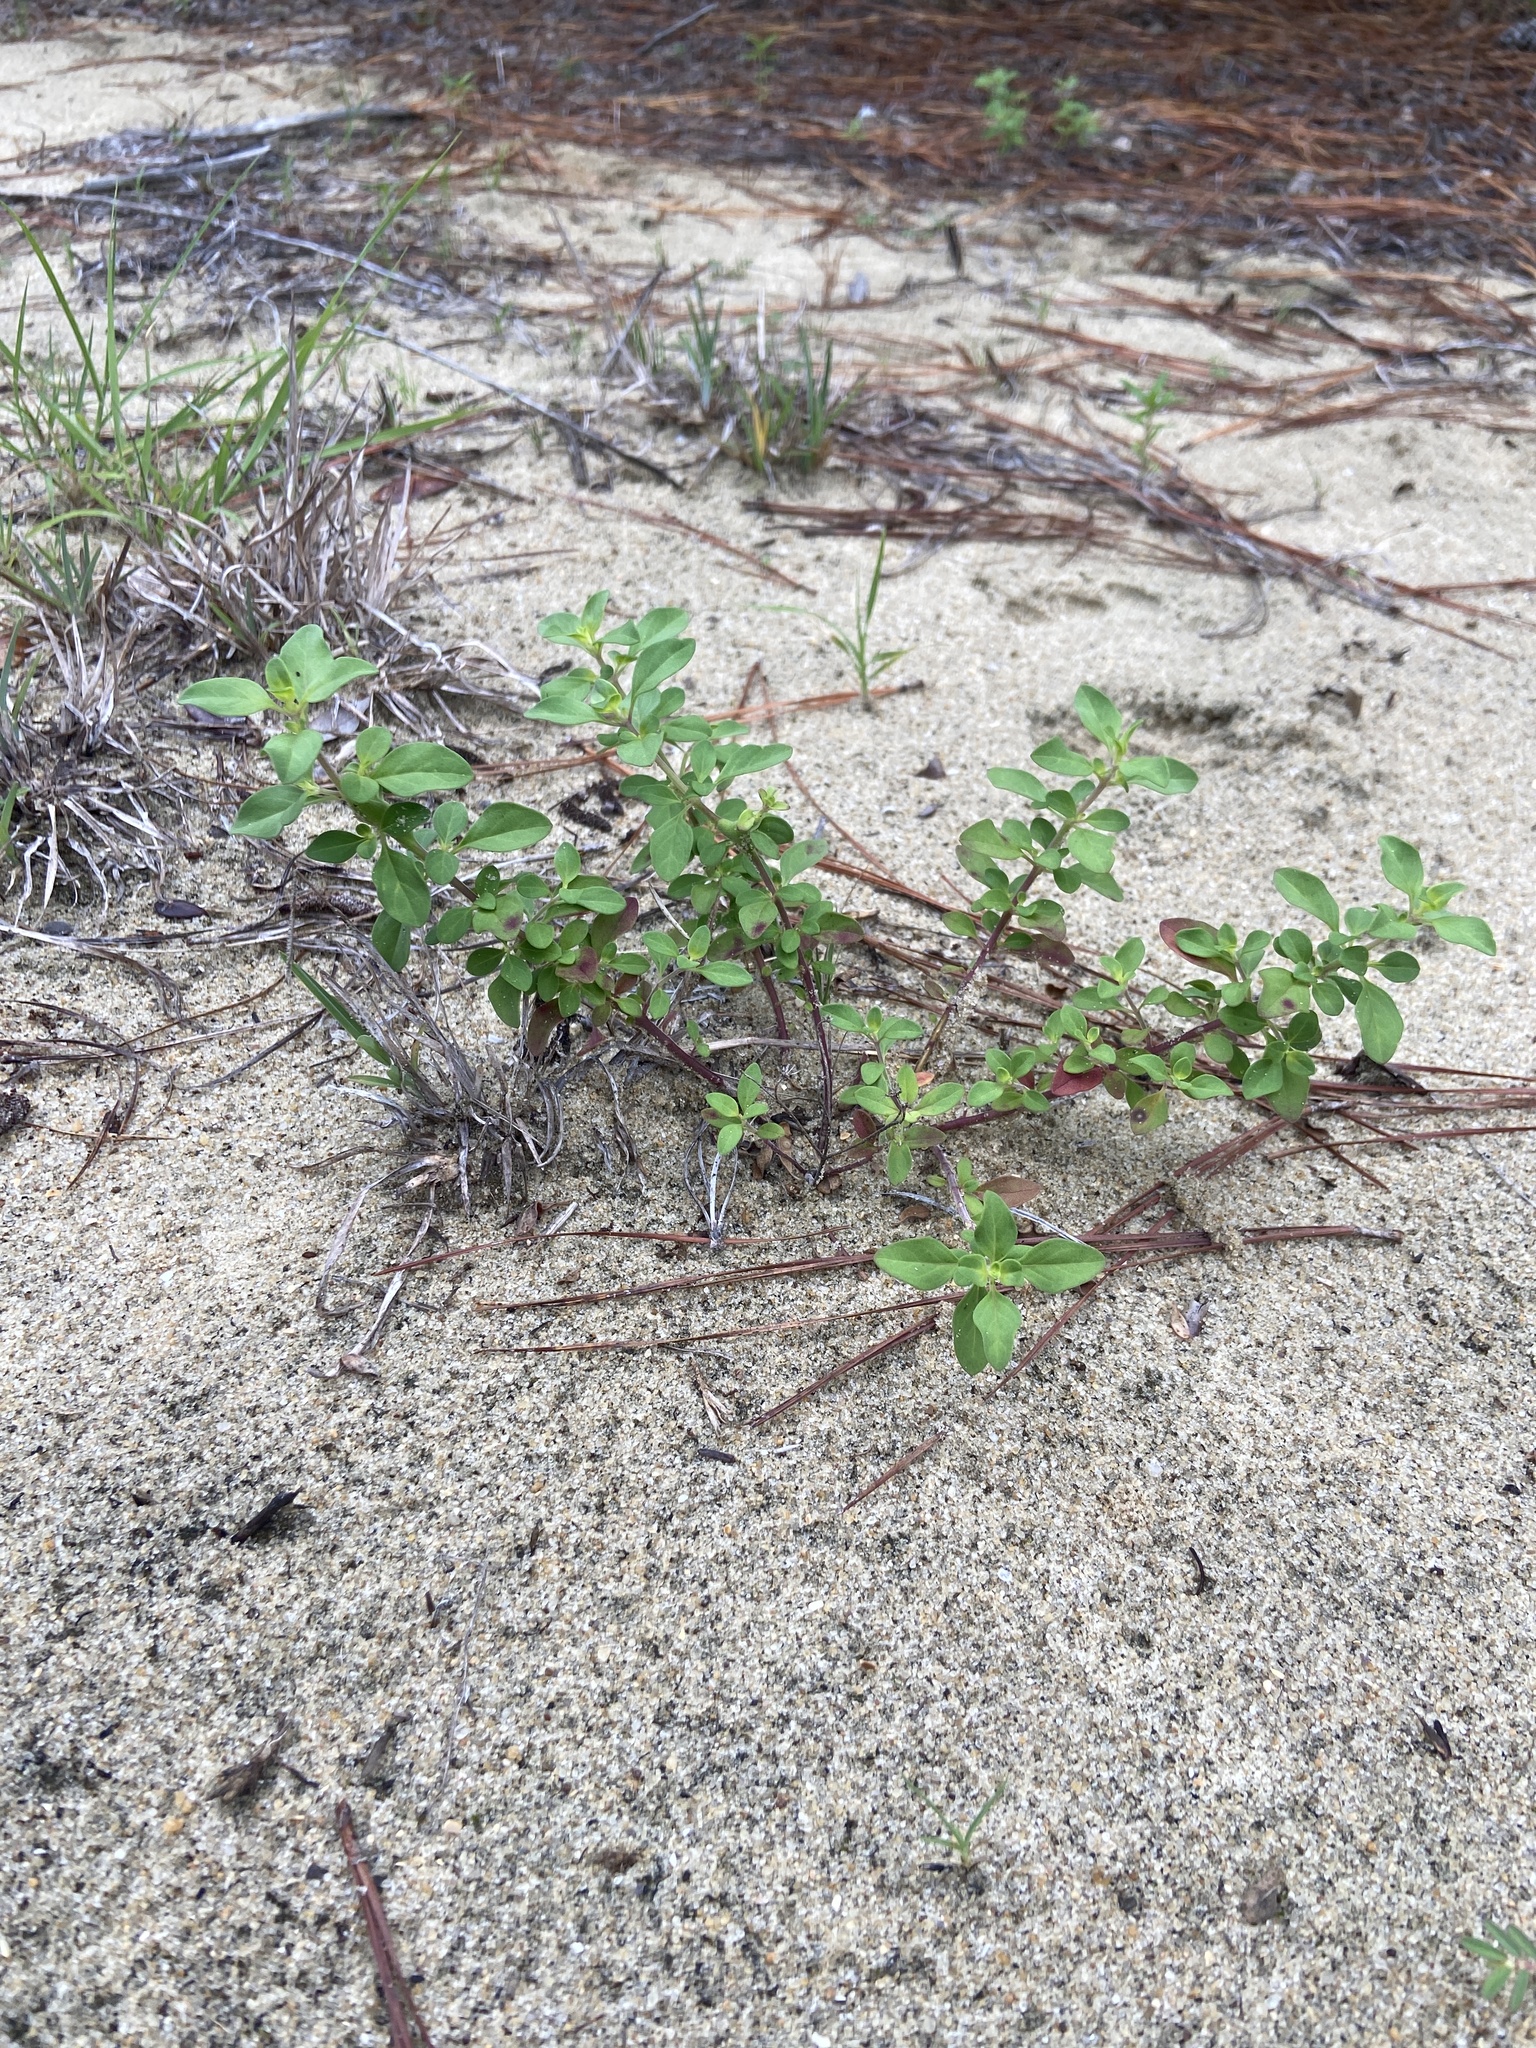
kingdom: Plantae
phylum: Tracheophyta
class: Magnoliopsida
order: Lamiales
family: Lamiaceae
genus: Trichostema
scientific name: Trichostema nesophilum
